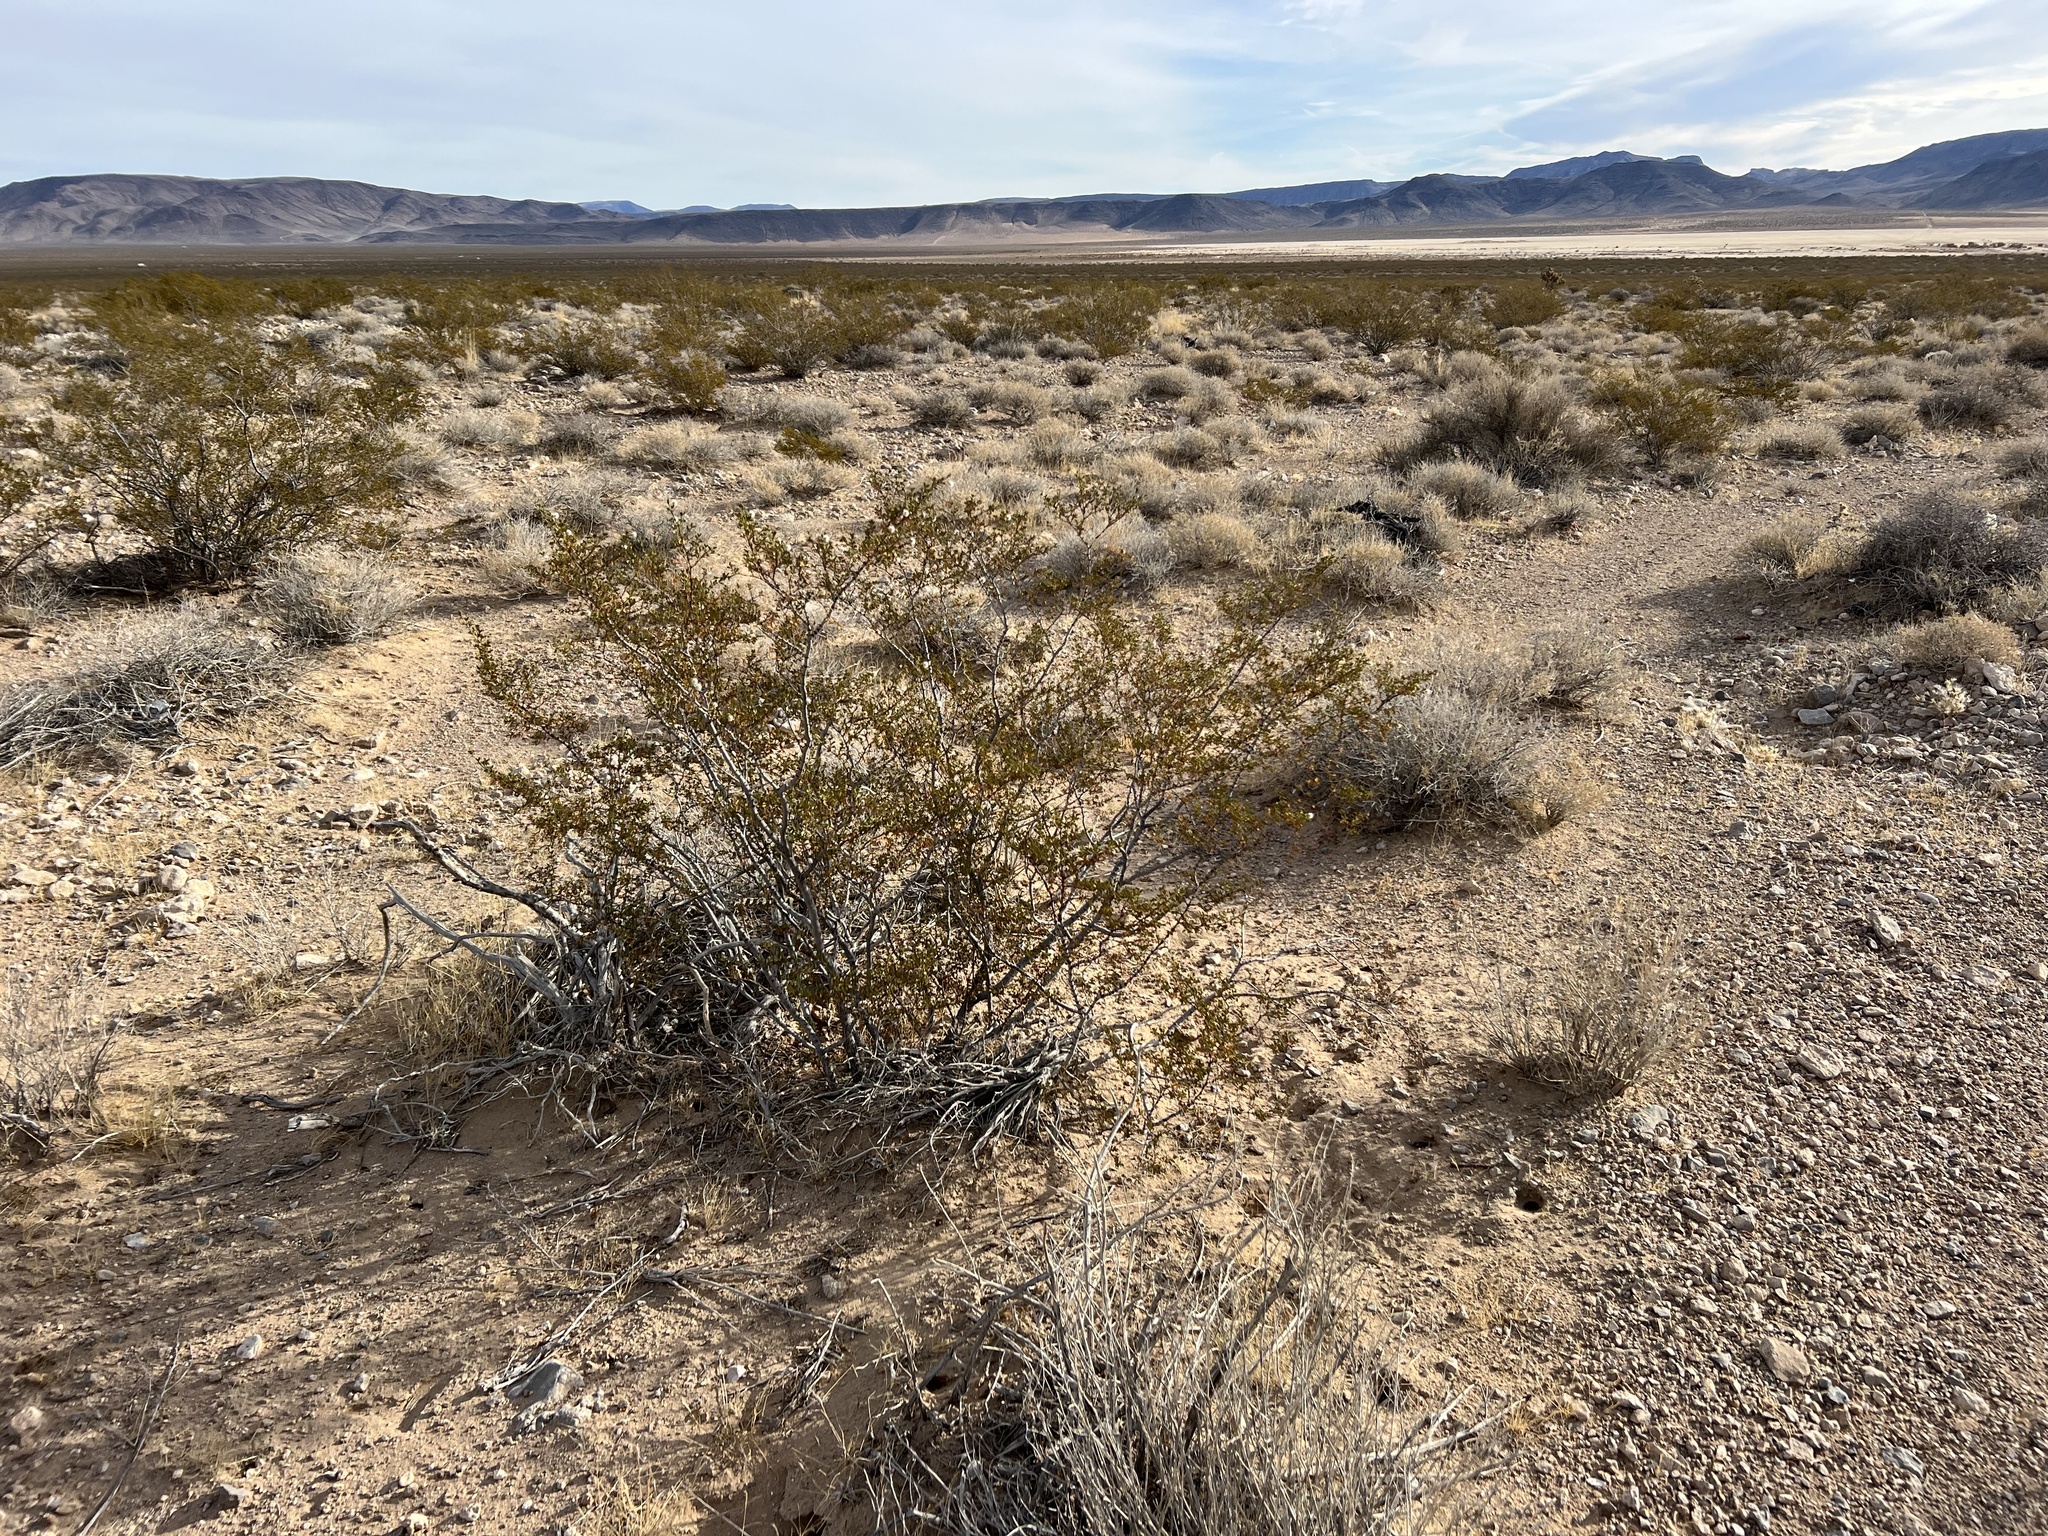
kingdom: Plantae
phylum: Tracheophyta
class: Magnoliopsida
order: Zygophyllales
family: Zygophyllaceae
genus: Larrea
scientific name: Larrea tridentata
